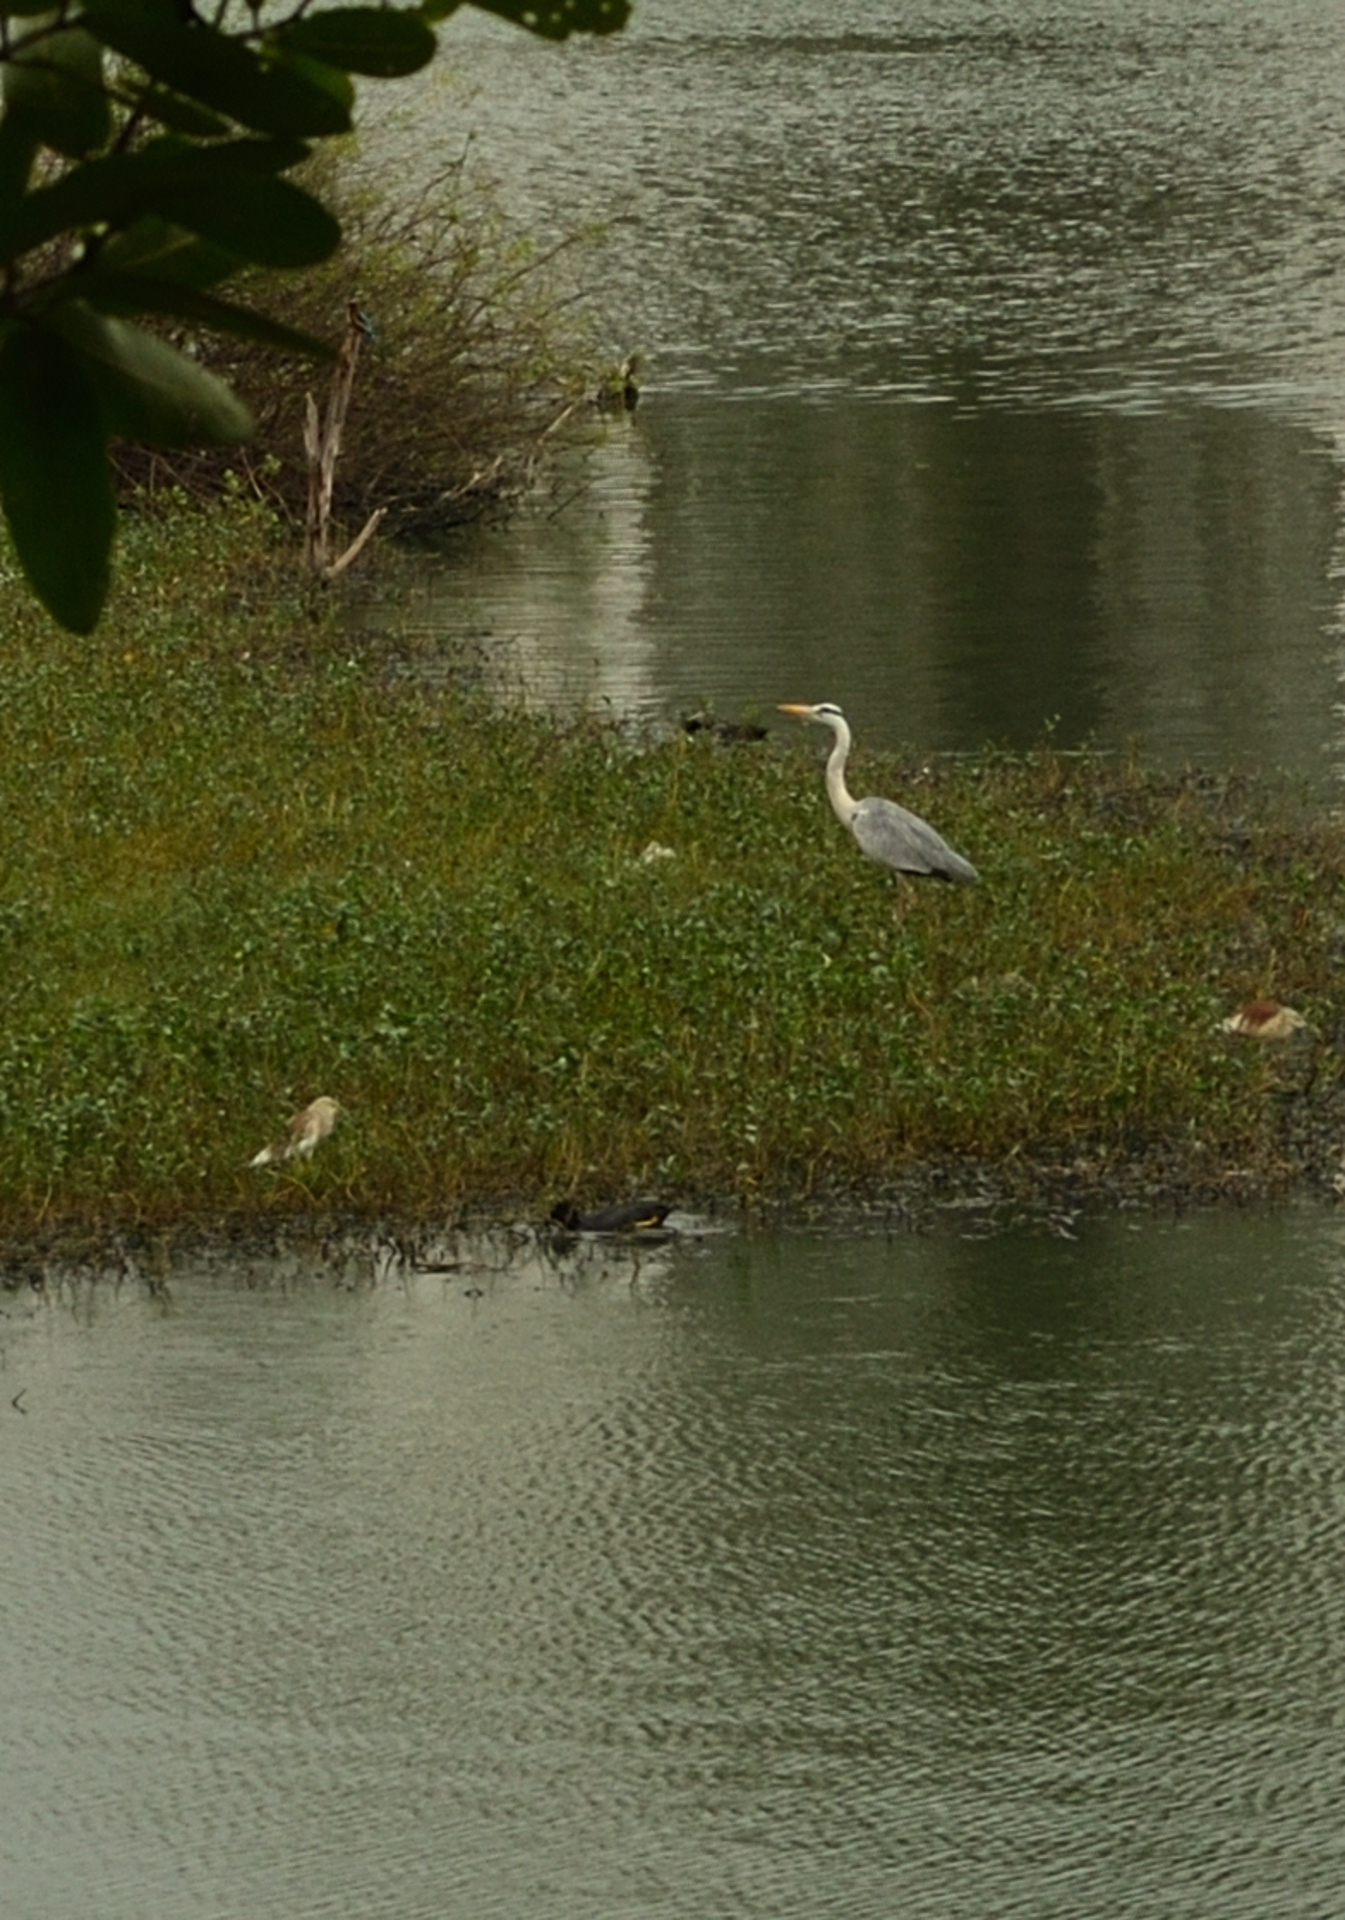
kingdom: Animalia
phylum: Chordata
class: Aves
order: Pelecaniformes
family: Ardeidae
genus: Ardea
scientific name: Ardea cinerea
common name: Grey heron
